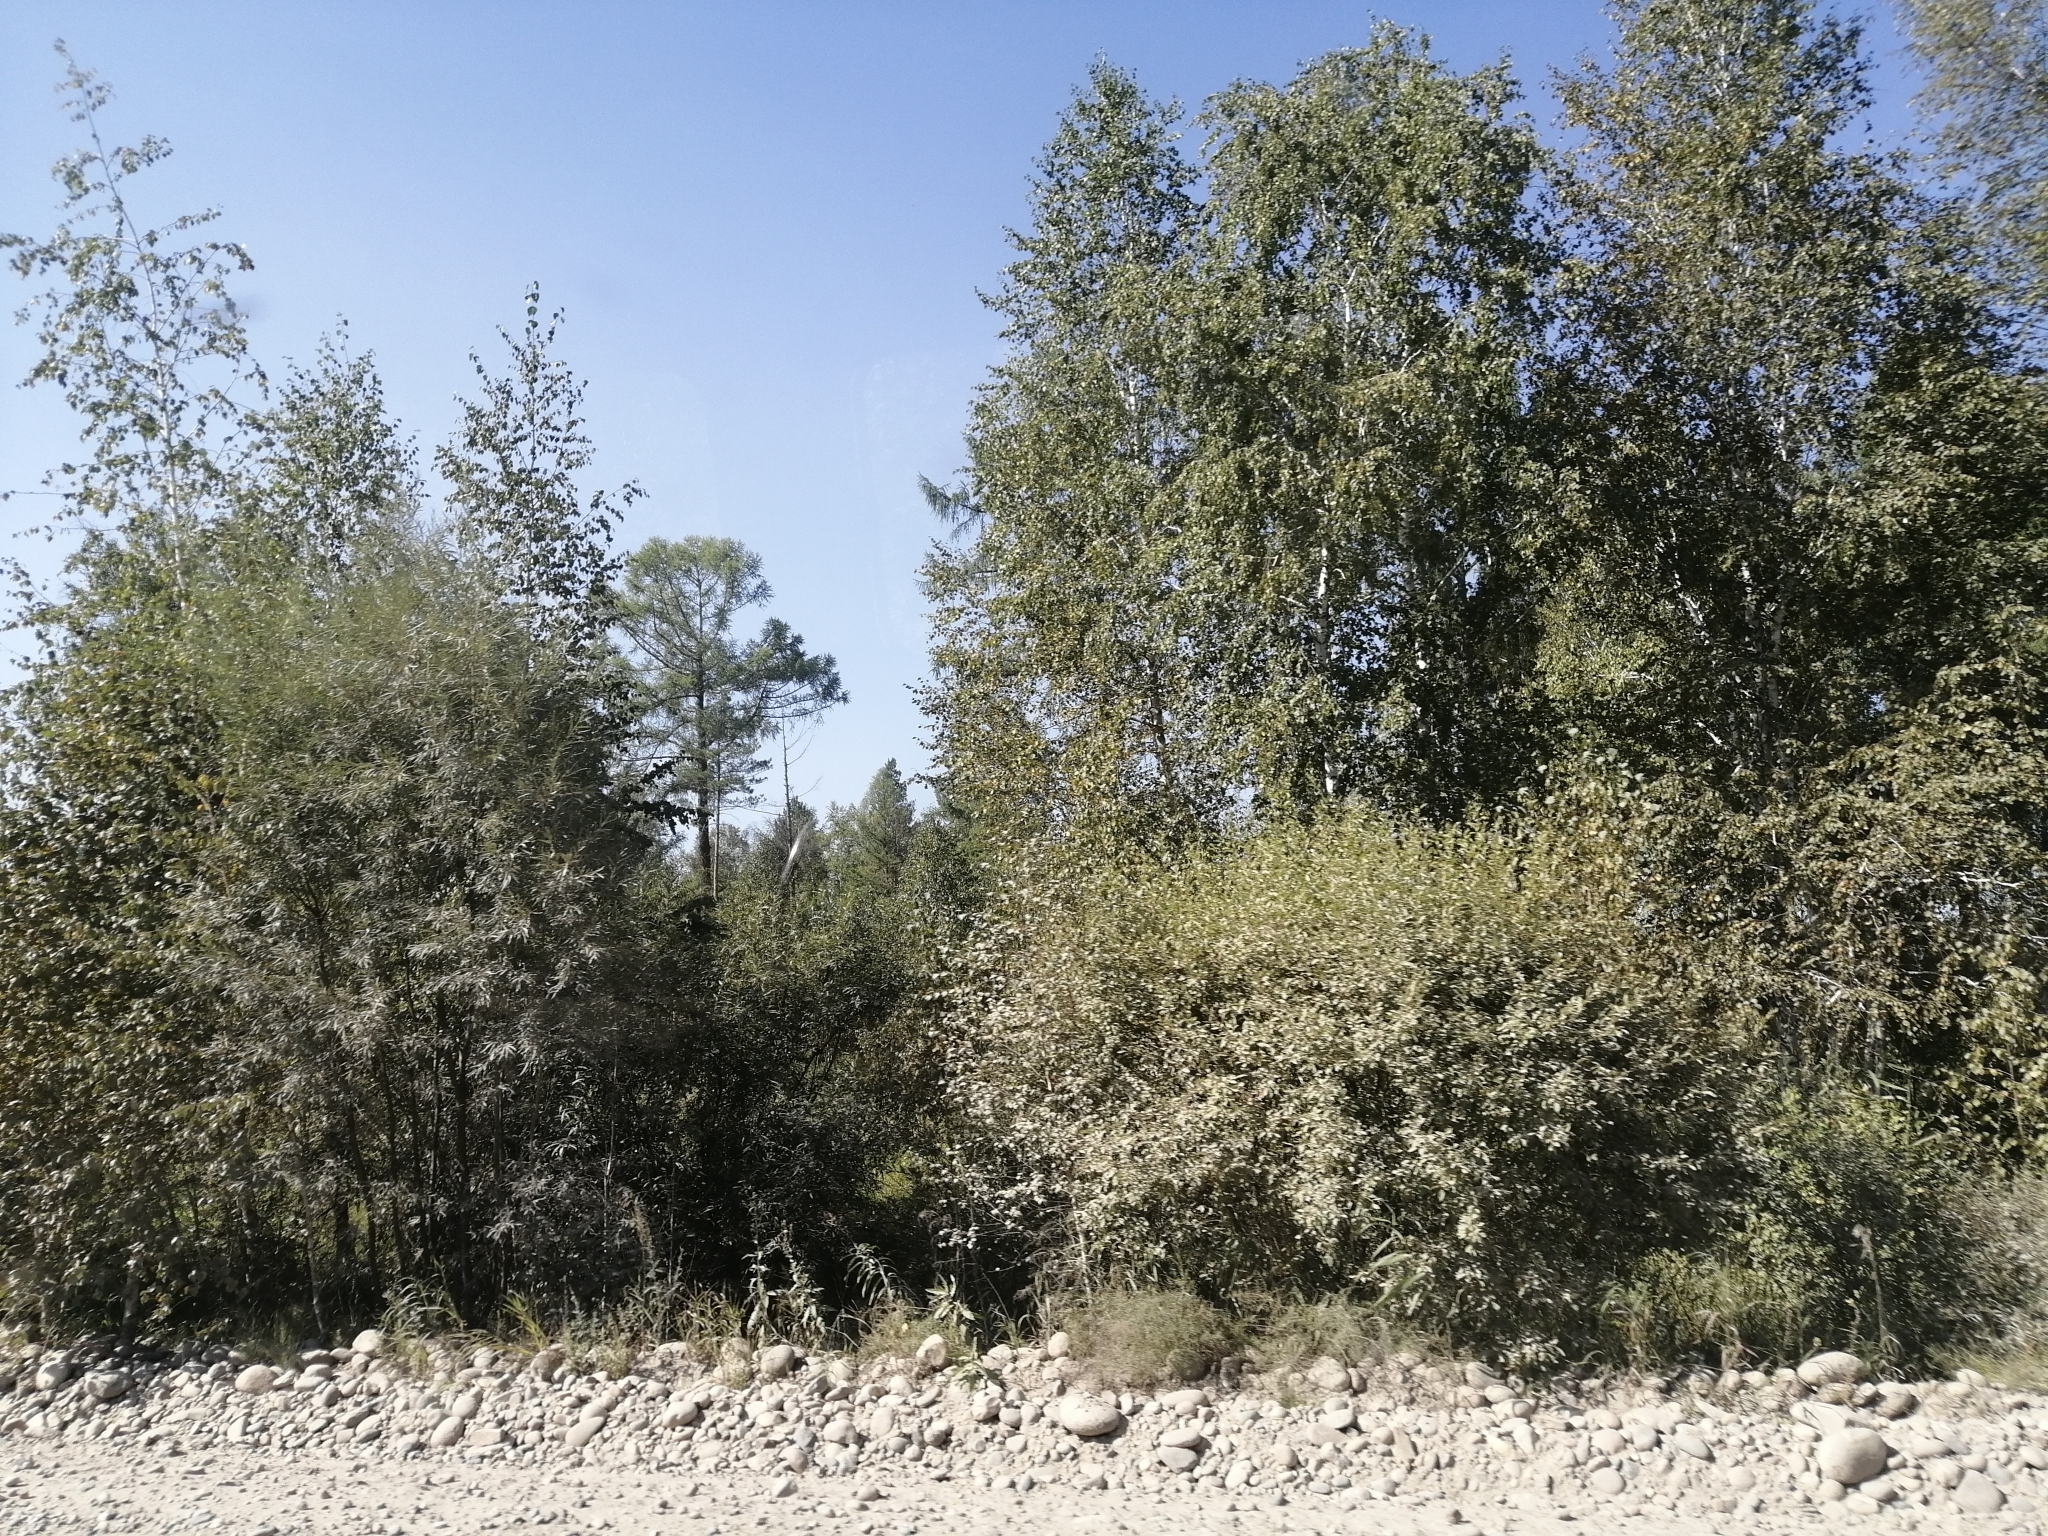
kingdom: Plantae
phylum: Tracheophyta
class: Pinopsida
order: Pinales
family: Pinaceae
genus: Larix
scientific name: Larix sibirica
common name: Siberian larch
